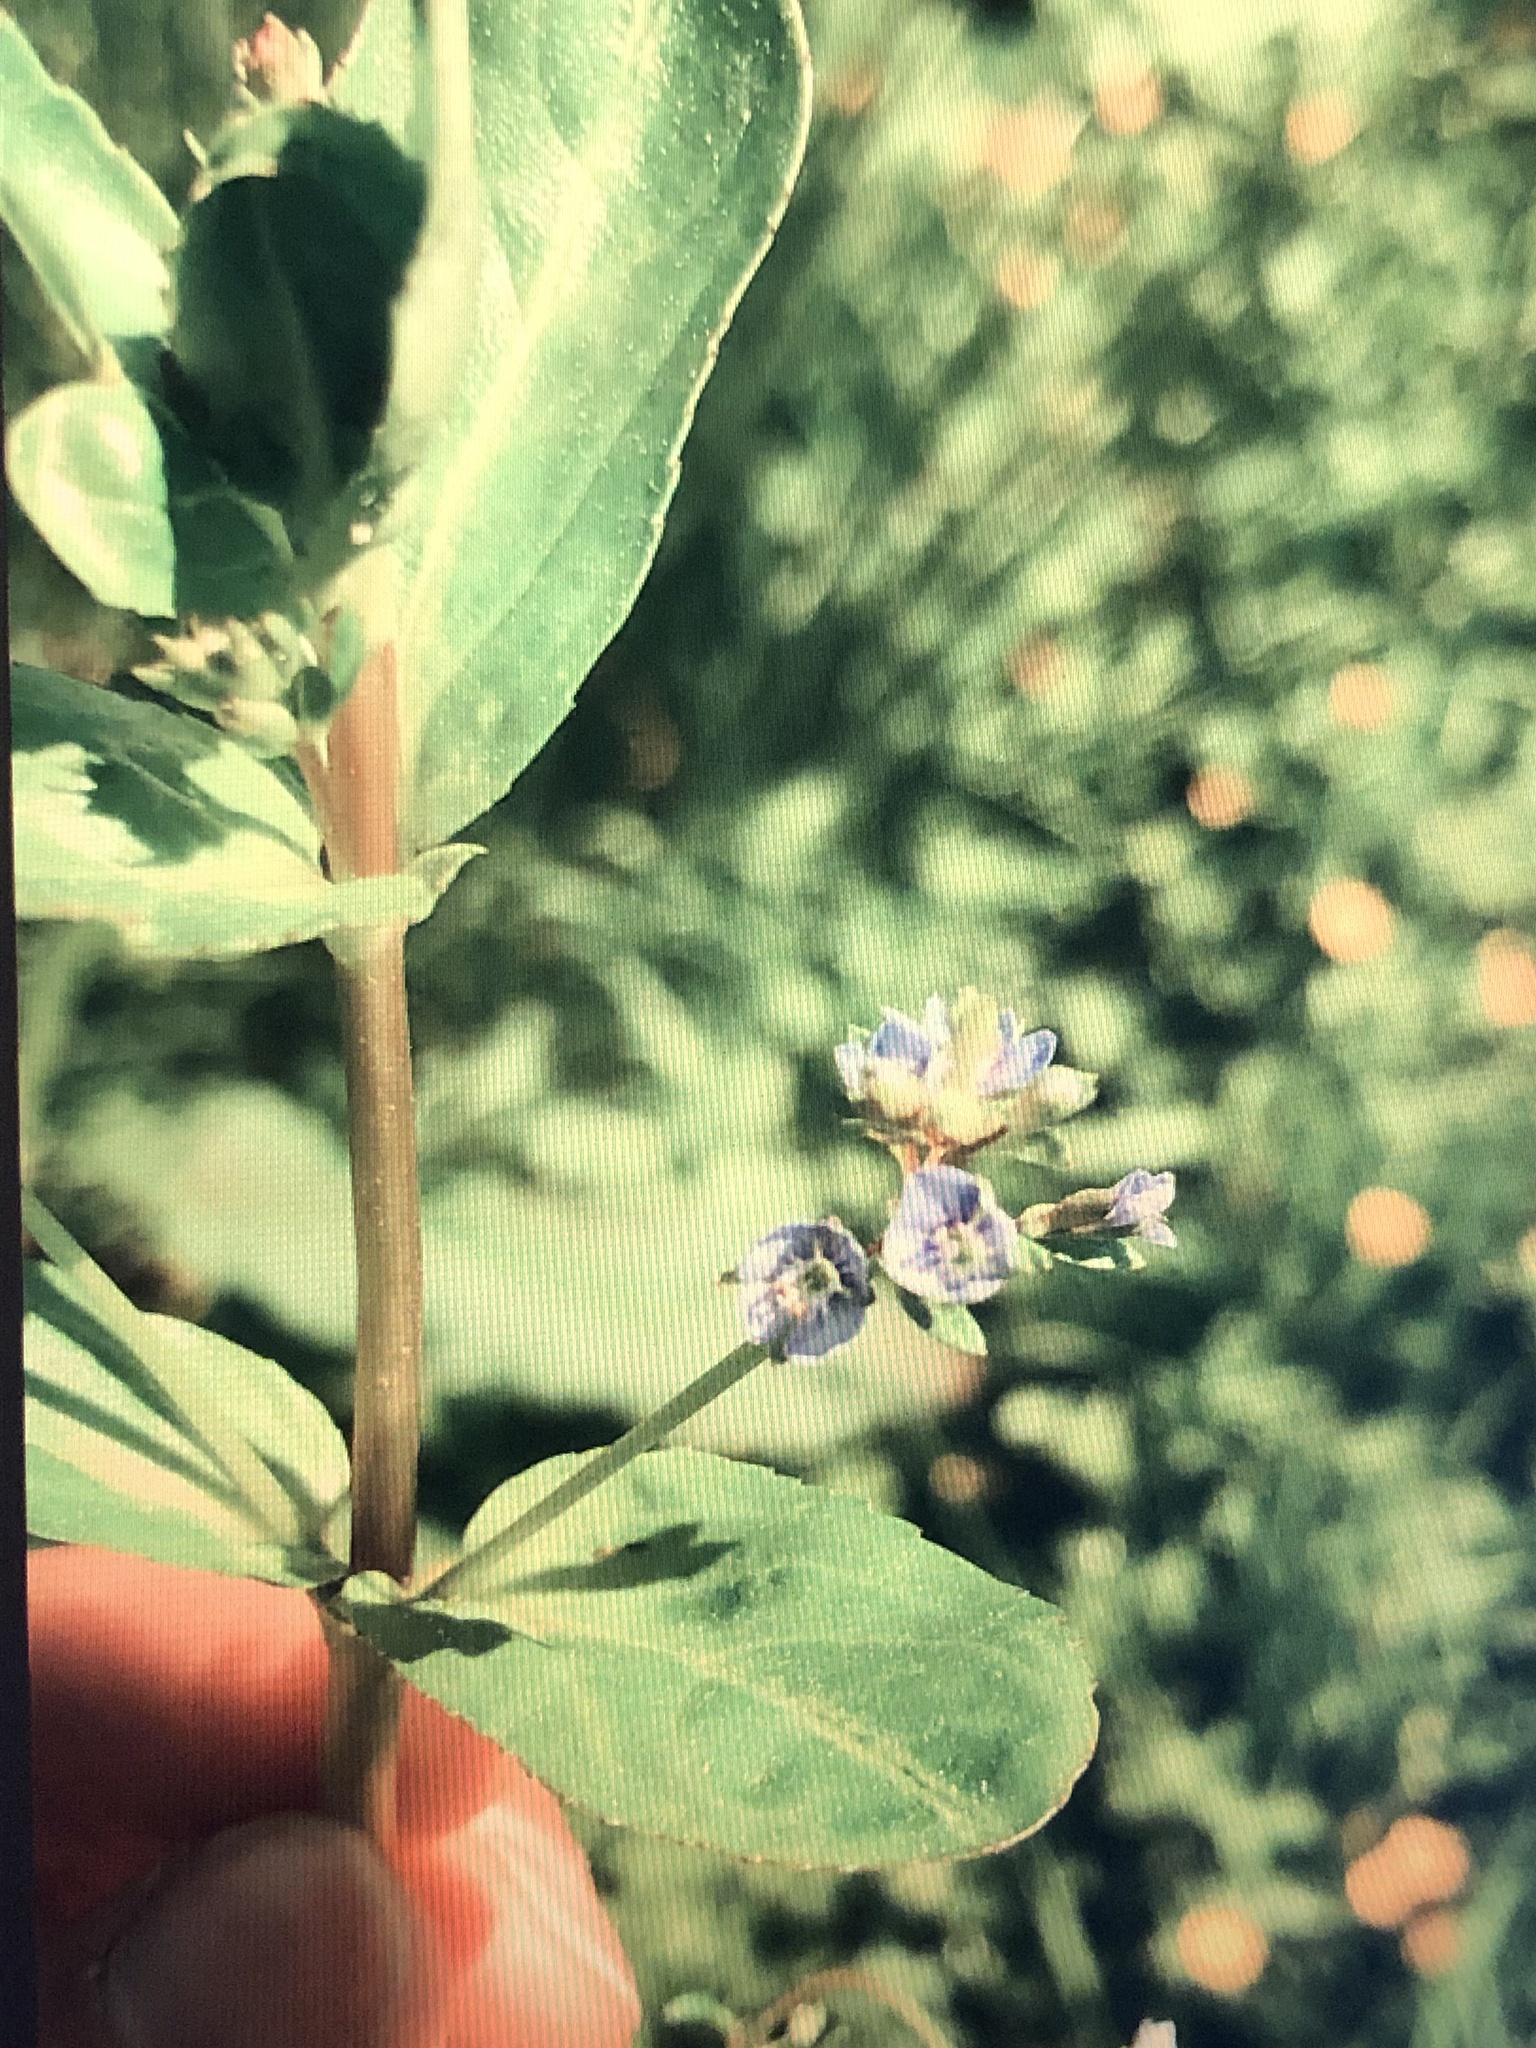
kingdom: Plantae
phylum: Tracheophyta
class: Magnoliopsida
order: Lamiales
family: Plantaginaceae
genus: Veronica
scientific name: Veronica beccabunga
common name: Brooklime
